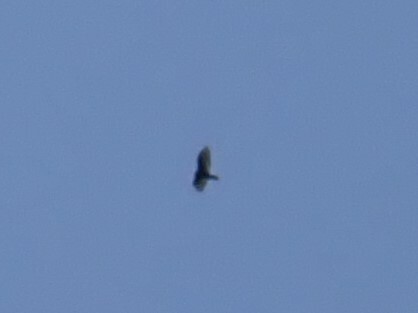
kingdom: Animalia
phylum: Chordata
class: Aves
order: Accipitriformes
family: Cathartidae
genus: Cathartes
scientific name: Cathartes aura
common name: Turkey vulture
